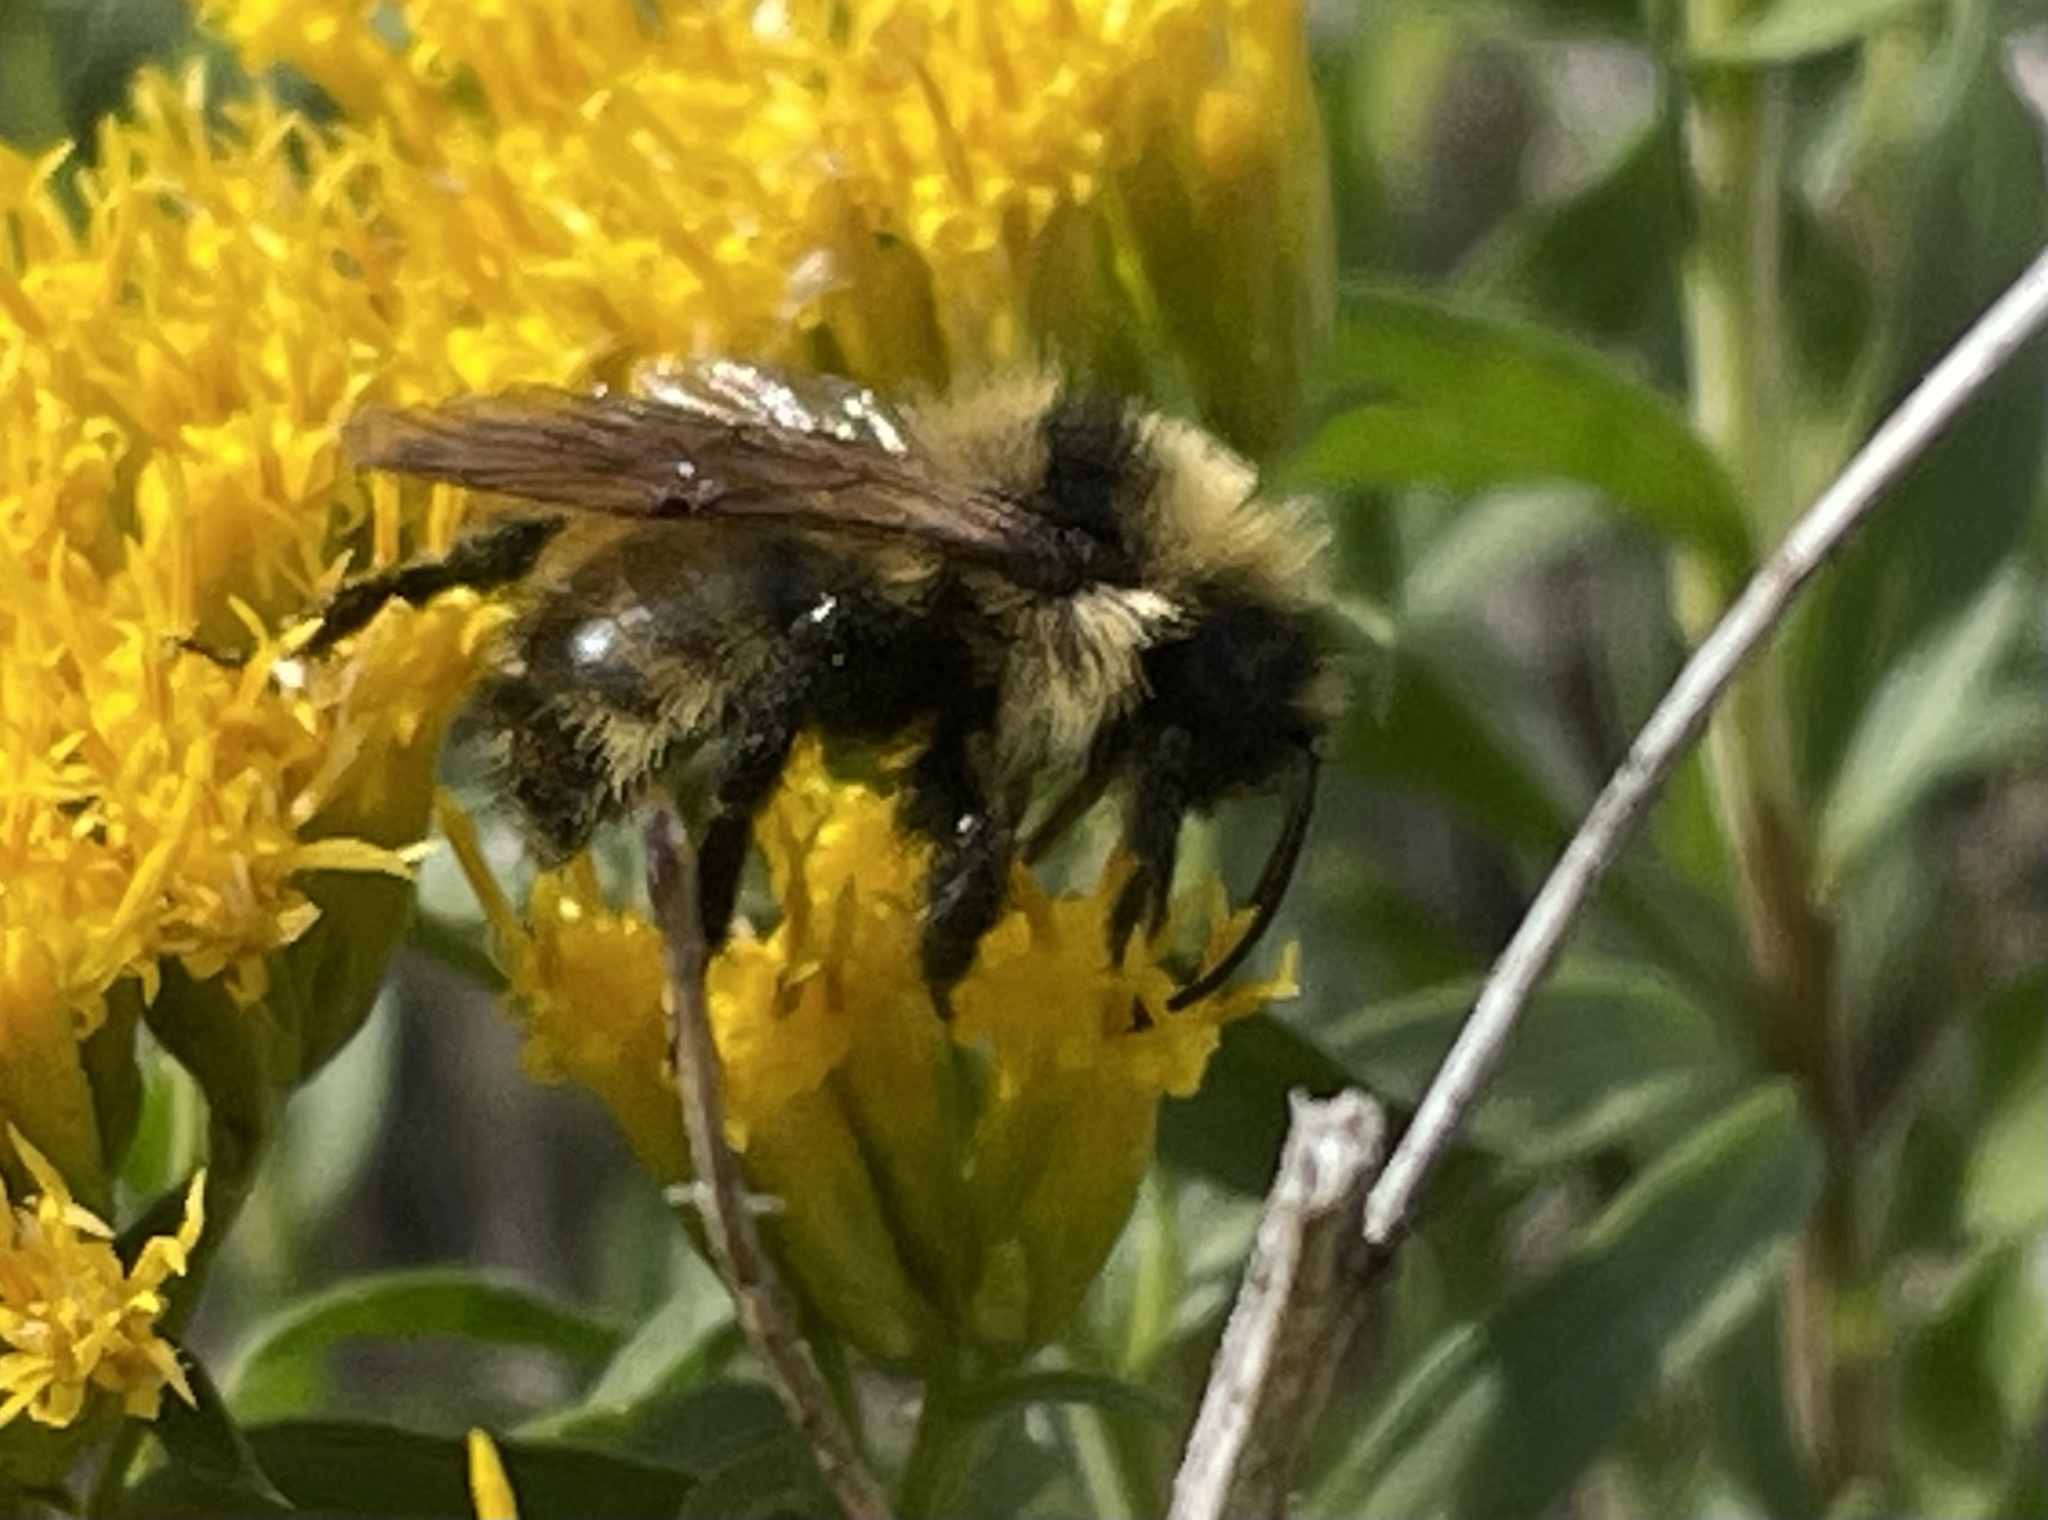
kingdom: Animalia
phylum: Arthropoda
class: Insecta
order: Hymenoptera
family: Apidae
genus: Bombus
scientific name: Bombus insularis
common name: Indiscriminate cuckoo bumble bee
